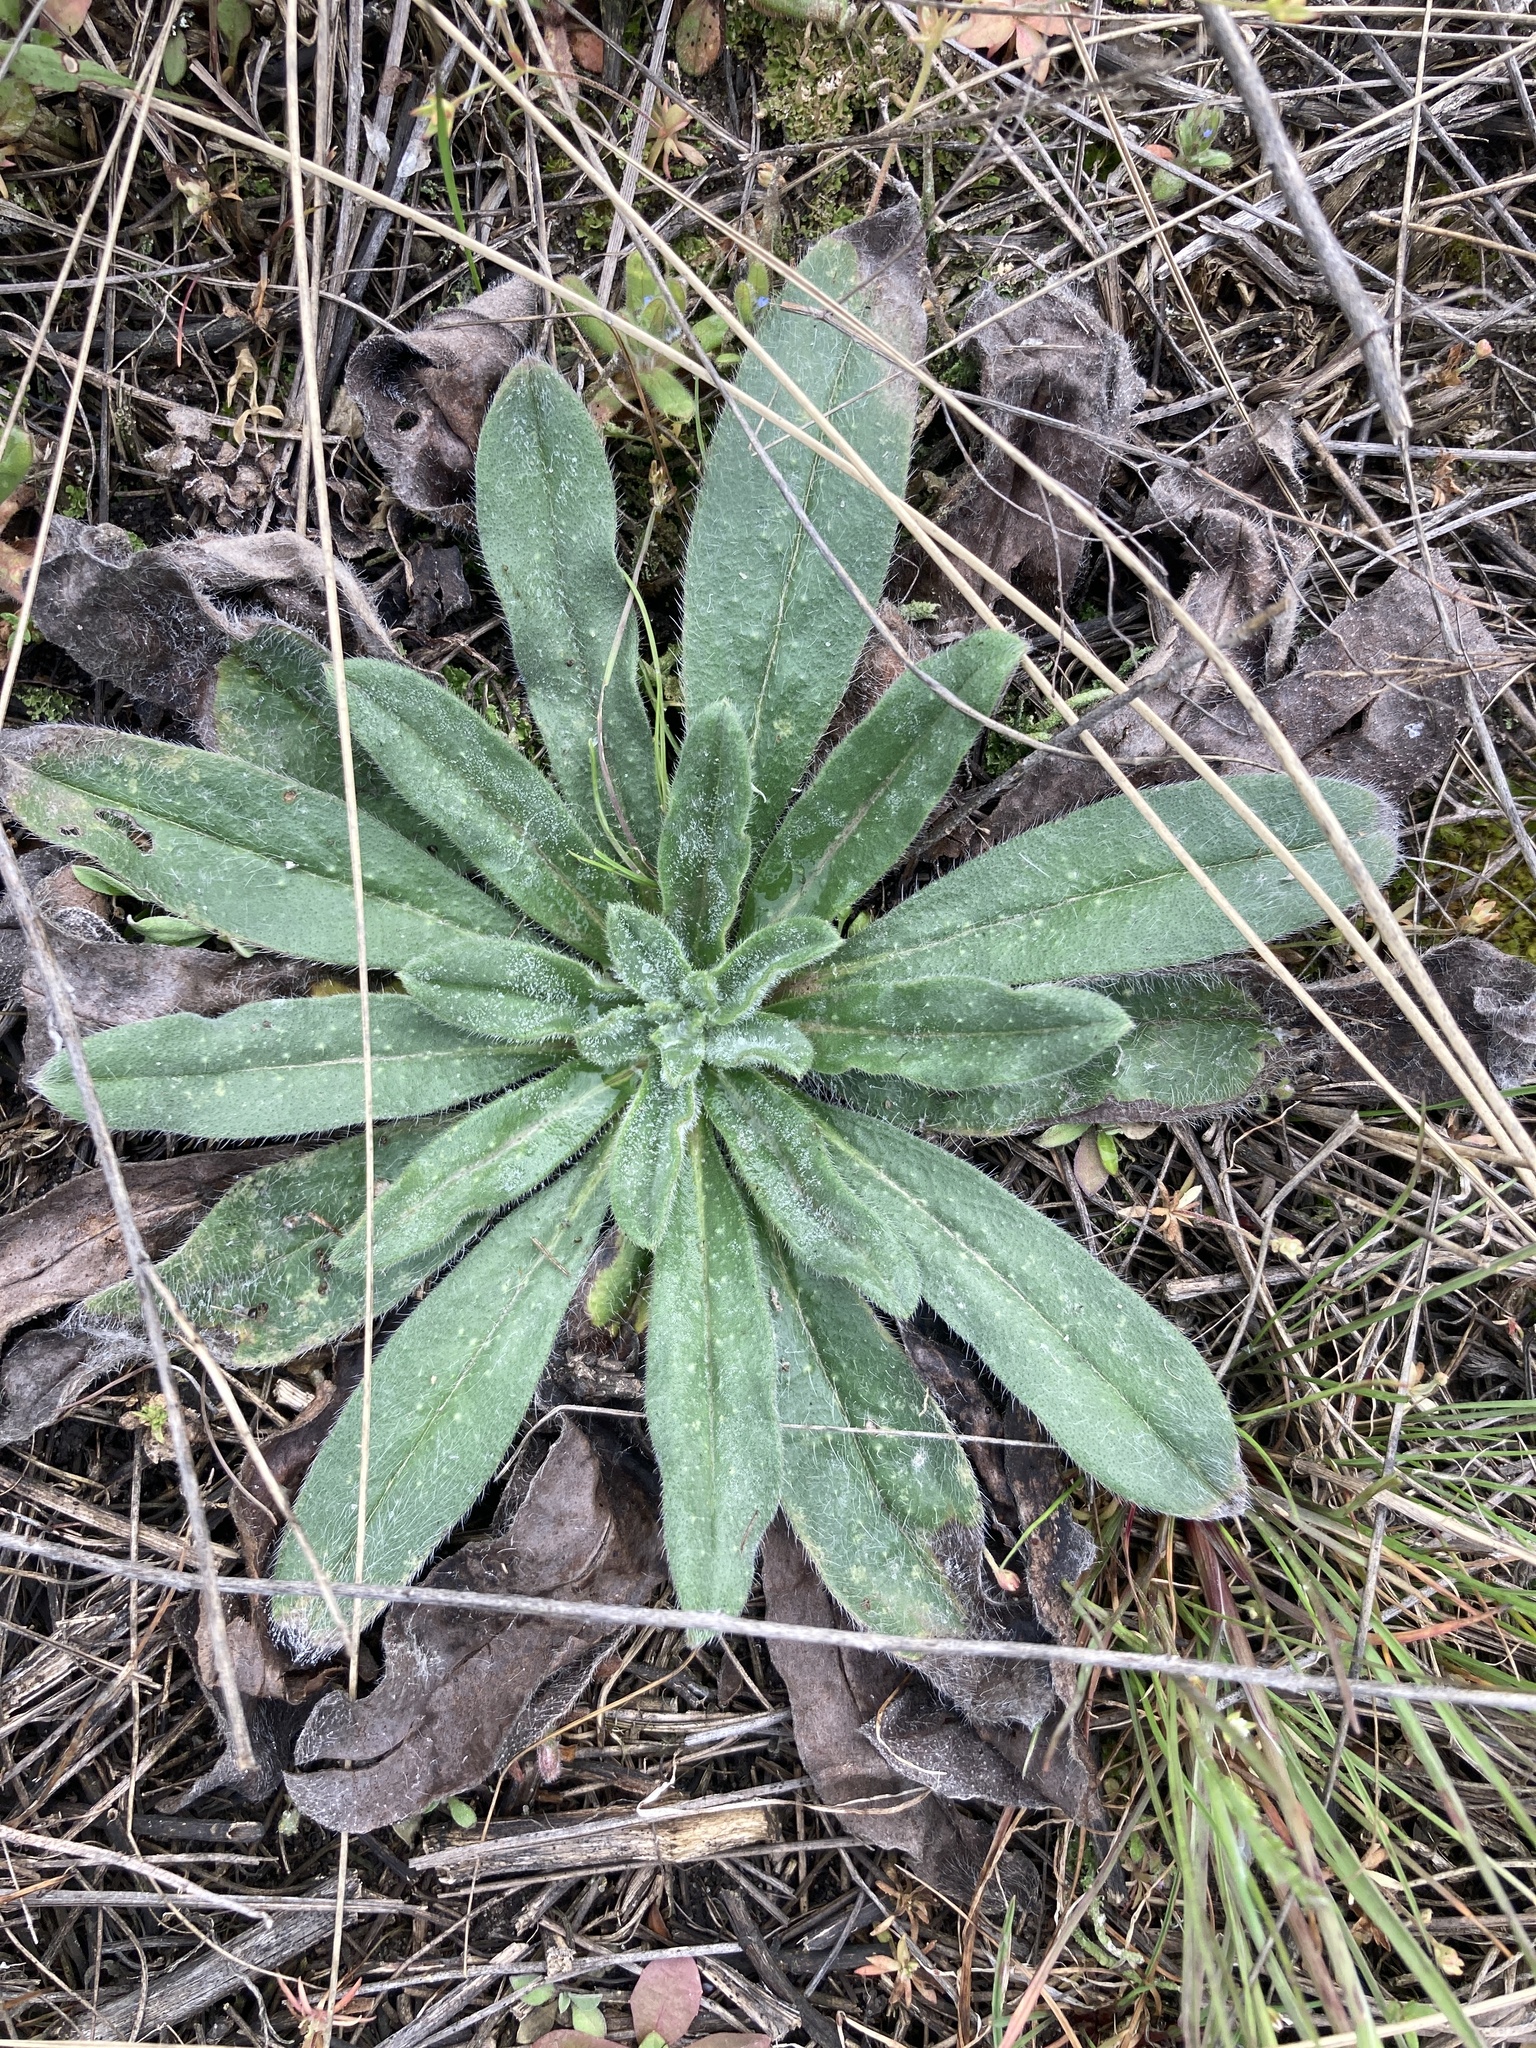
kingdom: Plantae
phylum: Tracheophyta
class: Magnoliopsida
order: Boraginales
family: Boraginaceae
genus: Echium
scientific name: Echium vulgare
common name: Common viper's bugloss
